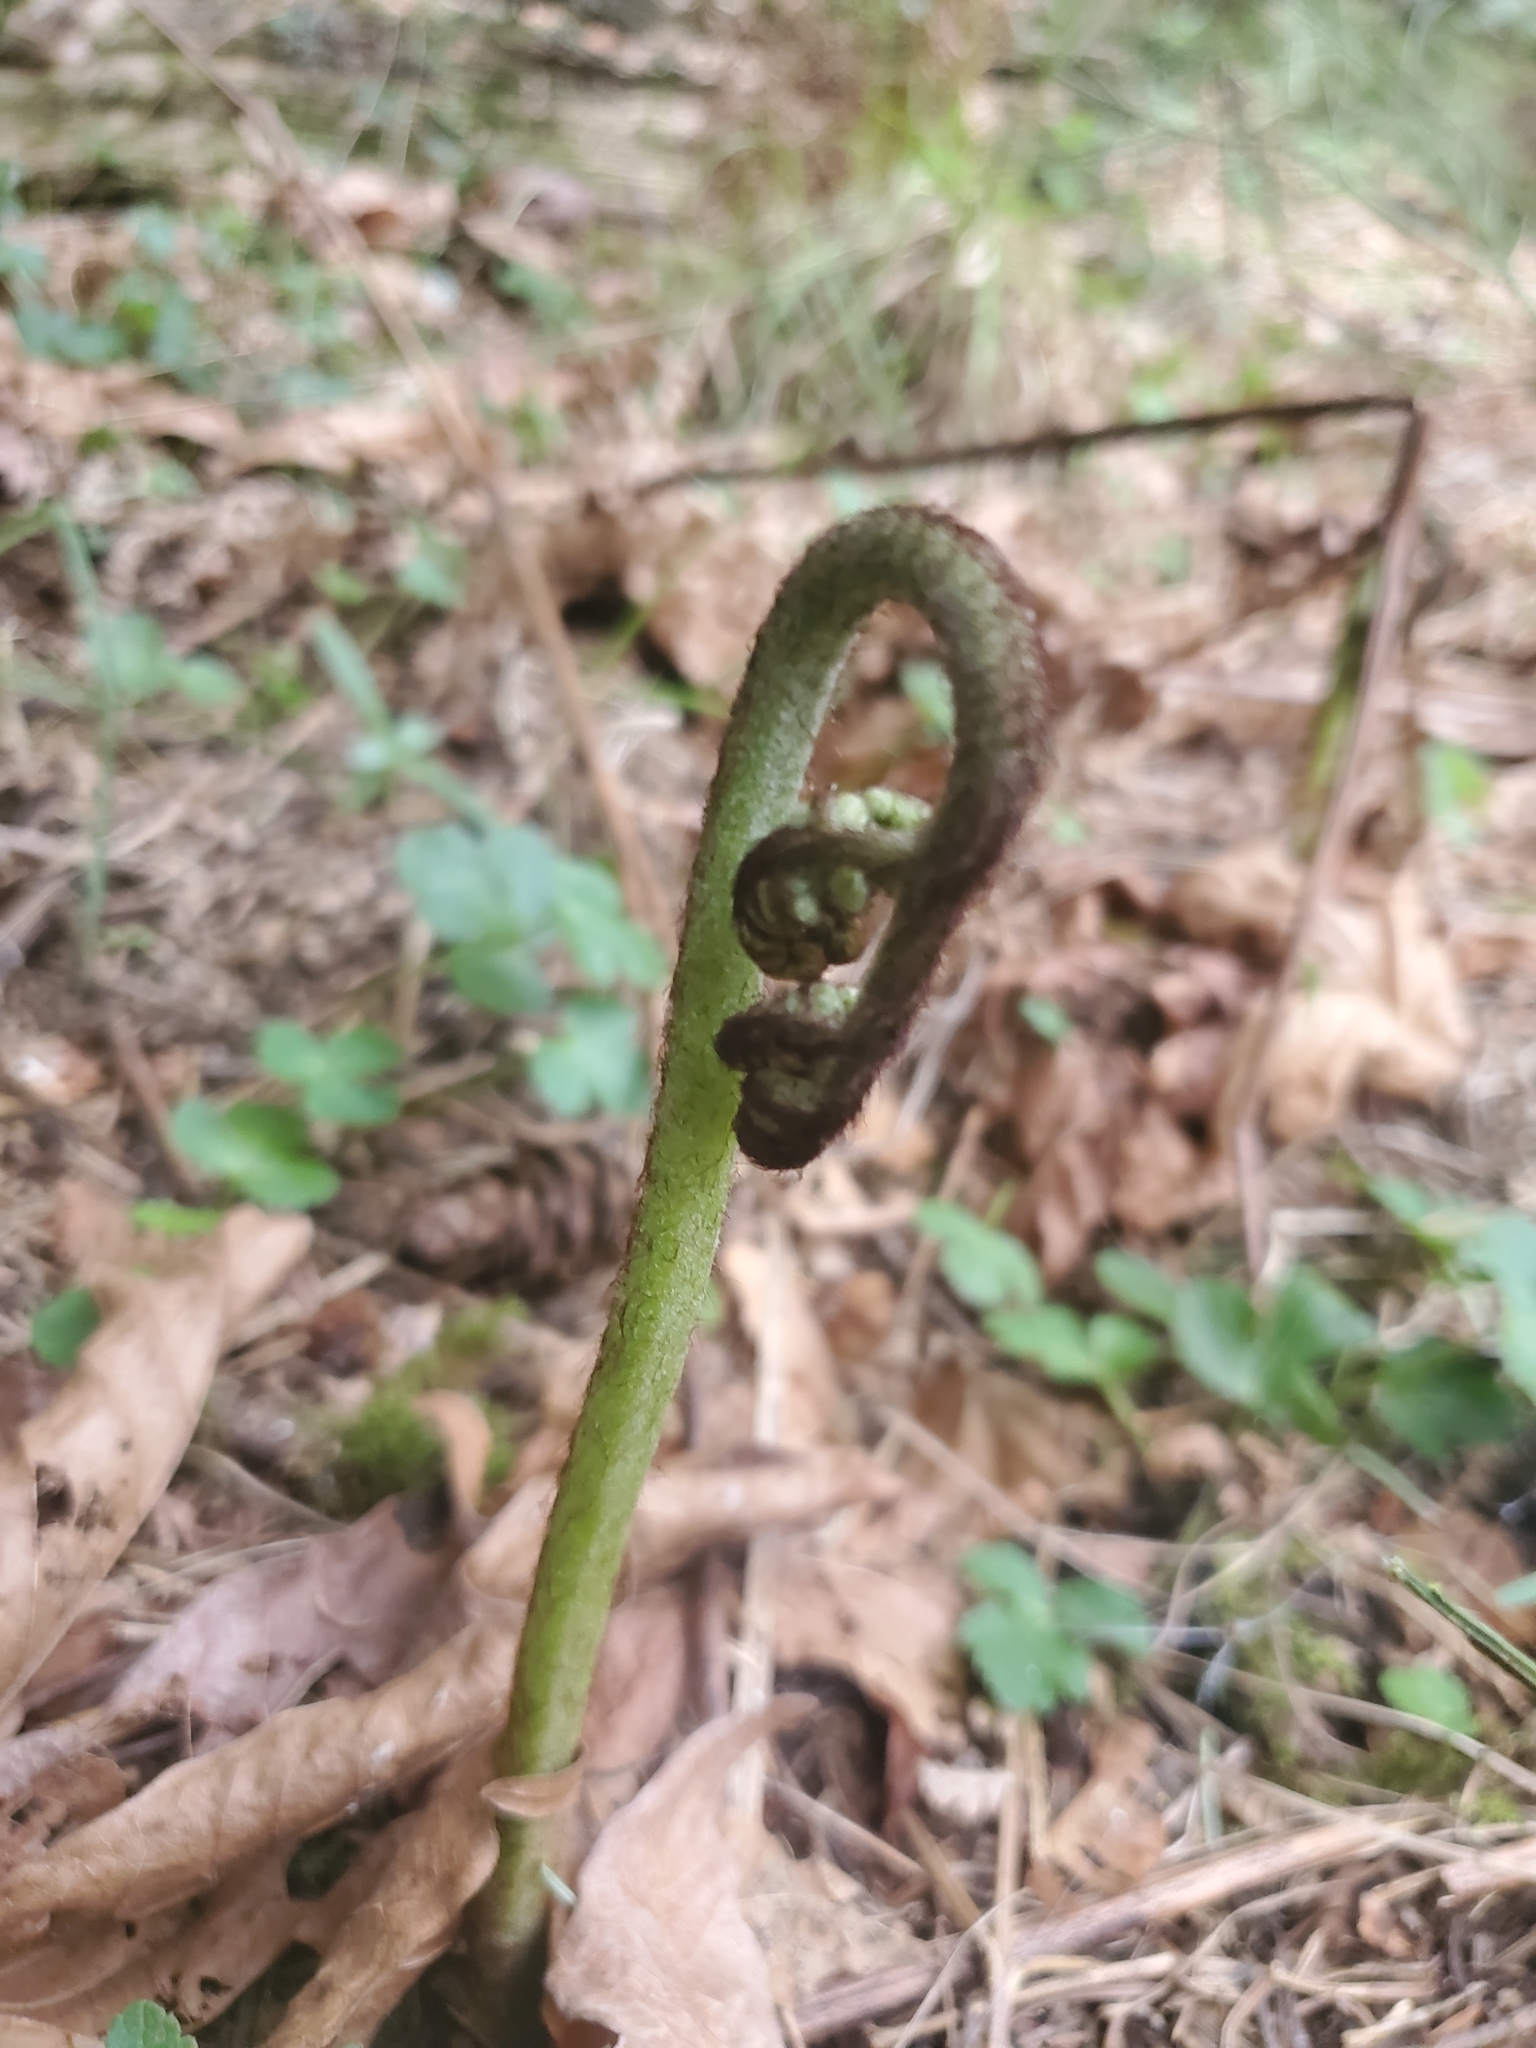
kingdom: Plantae
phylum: Tracheophyta
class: Polypodiopsida
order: Polypodiales
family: Dennstaedtiaceae
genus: Pteridium
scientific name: Pteridium aquilinum
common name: Bracken
